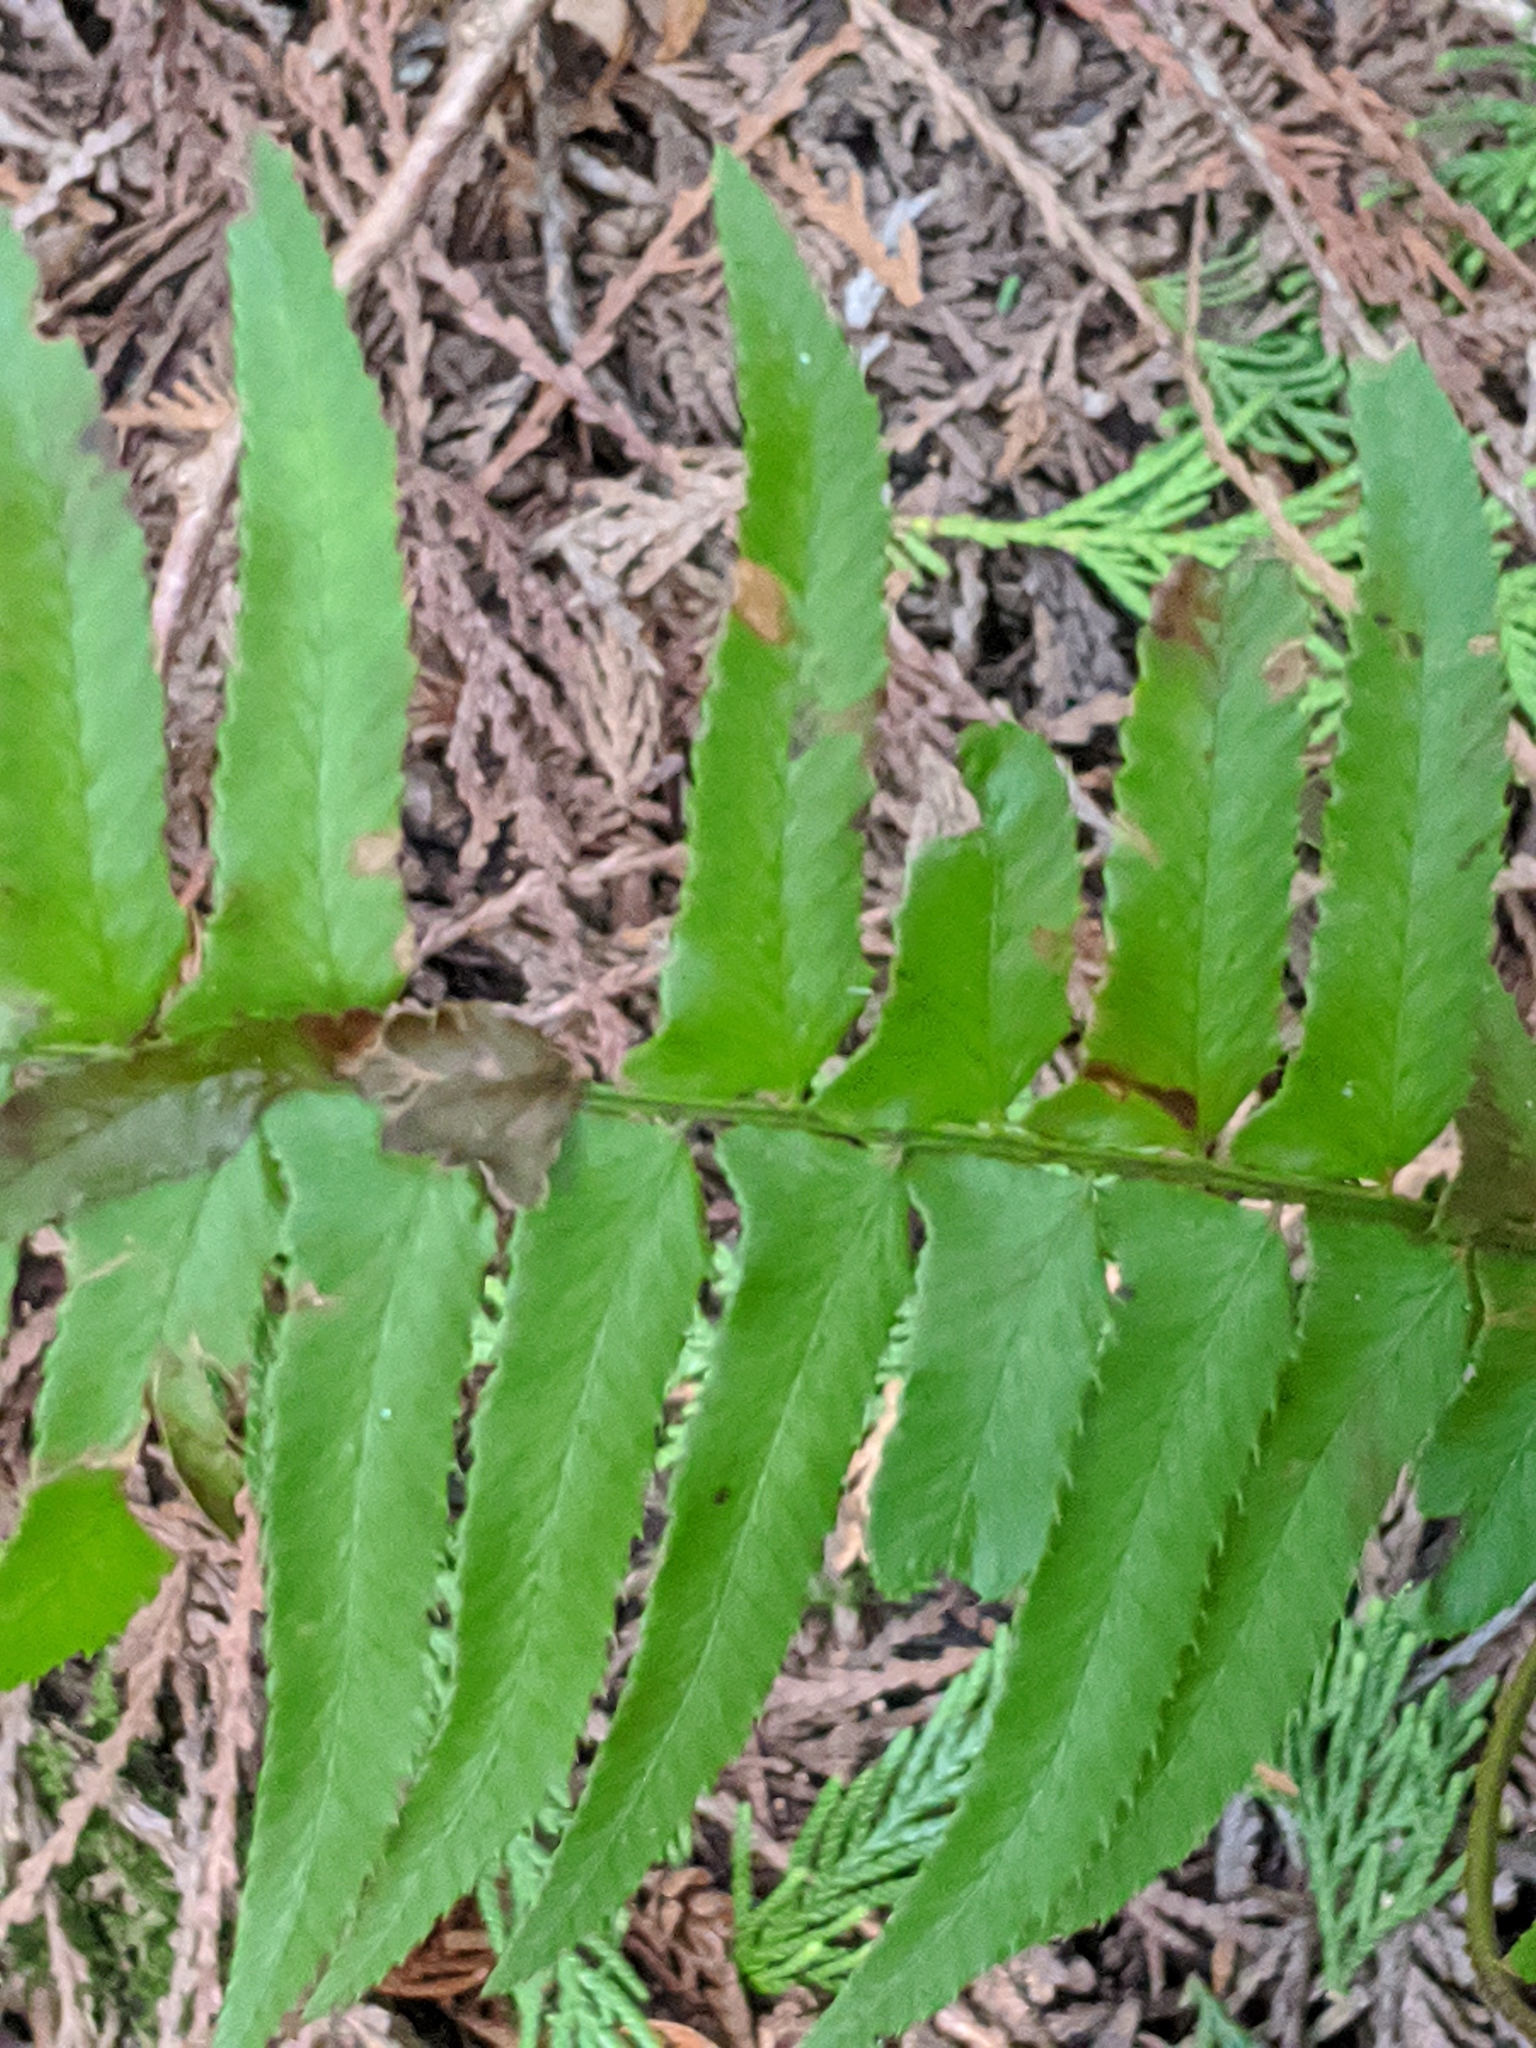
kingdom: Plantae
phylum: Tracheophyta
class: Polypodiopsida
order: Polypodiales
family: Dryopteridaceae
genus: Polystichum
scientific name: Polystichum munitum
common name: Western sword-fern
